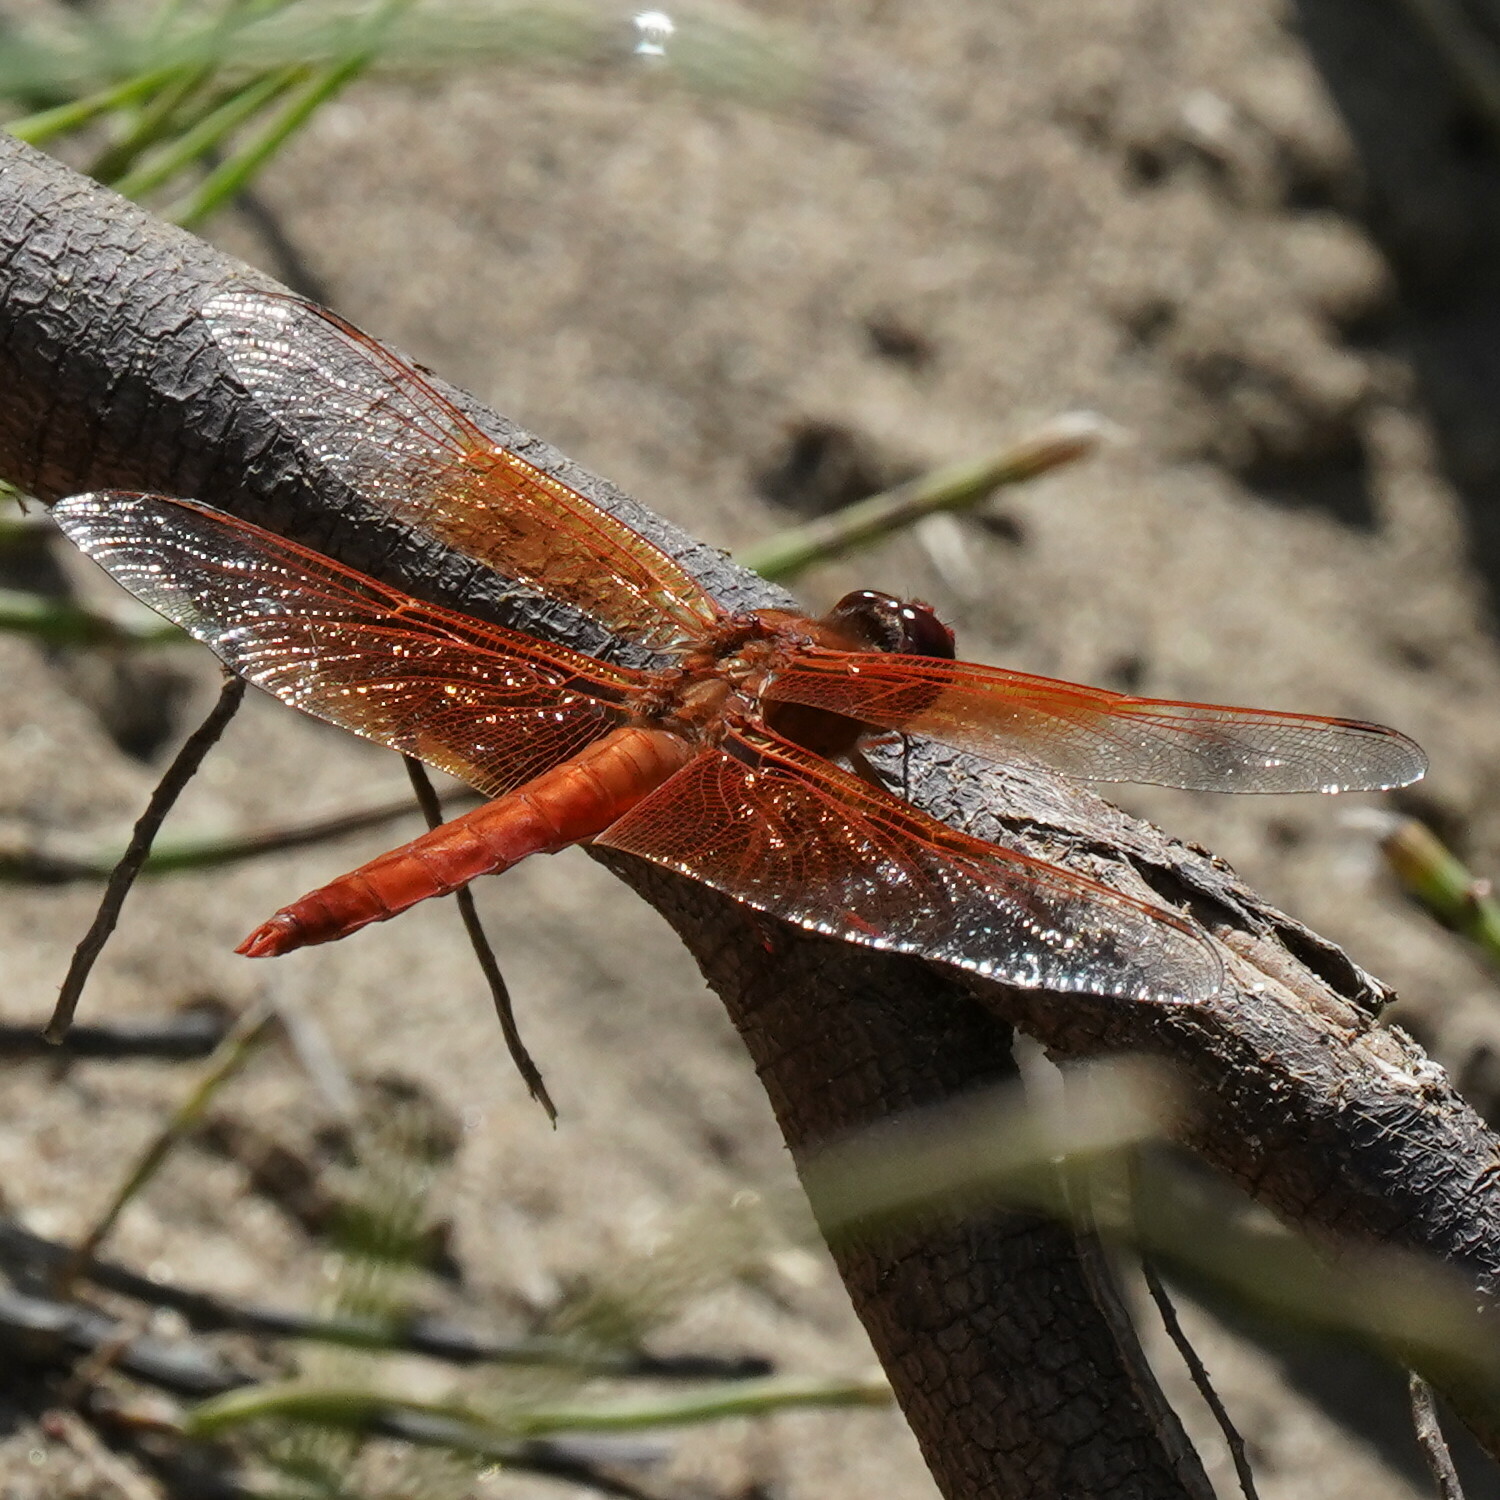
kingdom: Animalia
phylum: Arthropoda
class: Insecta
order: Odonata
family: Libellulidae
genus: Libellula
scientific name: Libellula saturata
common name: Flame skimmer
